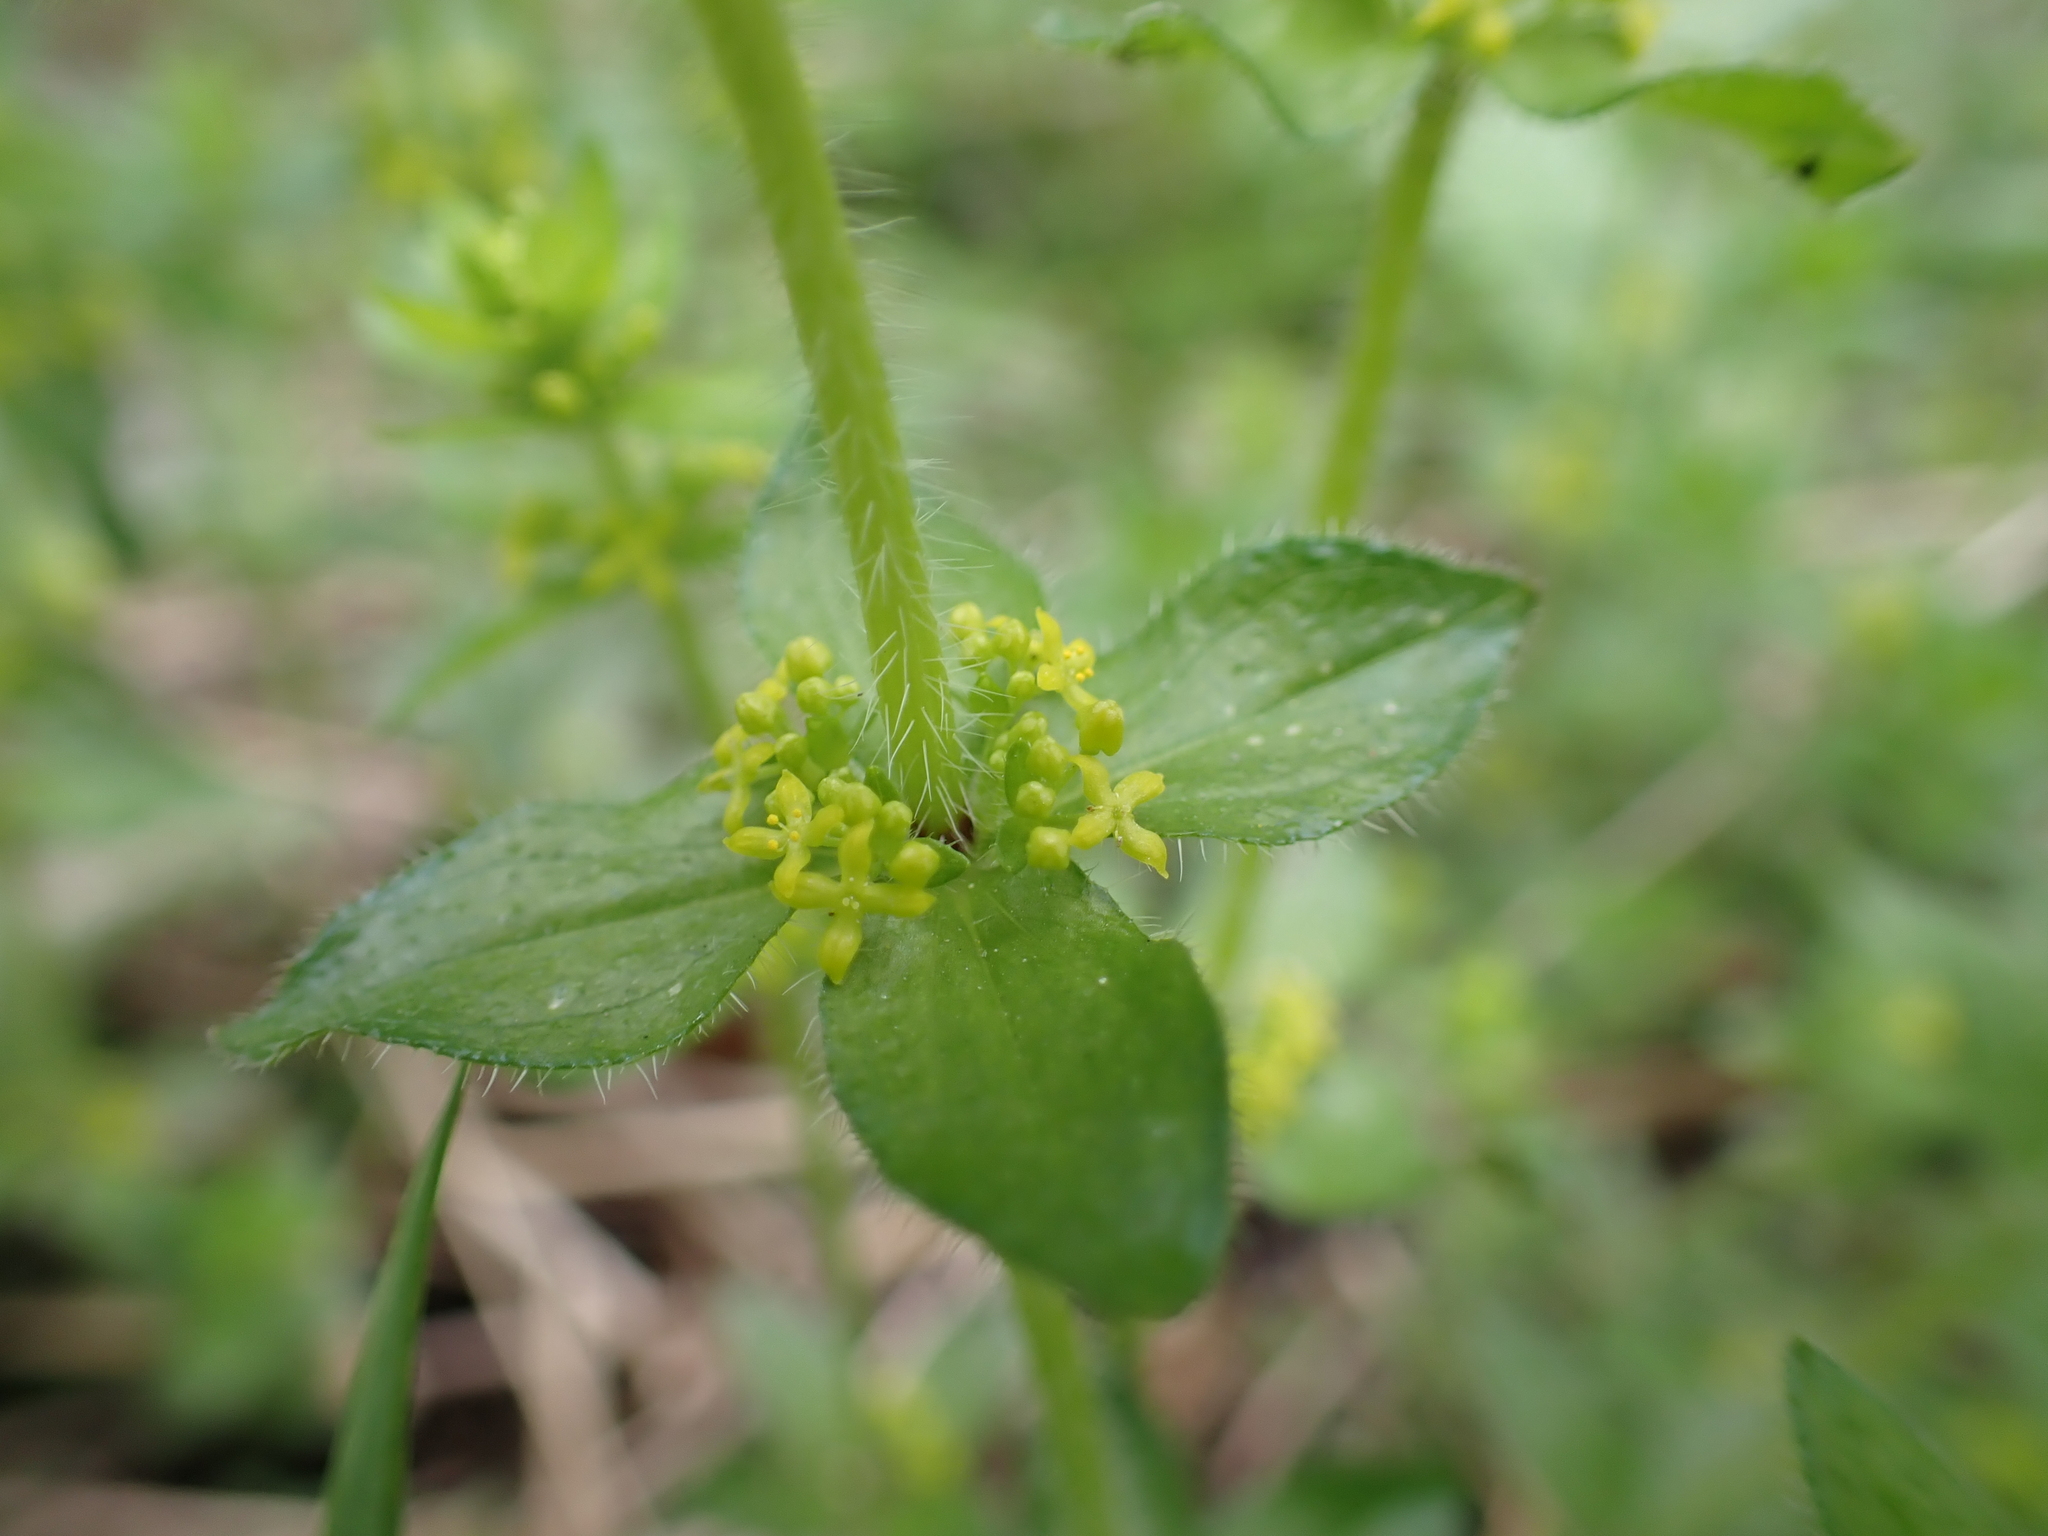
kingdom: Plantae
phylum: Tracheophyta
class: Magnoliopsida
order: Gentianales
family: Rubiaceae
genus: Cruciata
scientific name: Cruciata laevipes
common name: Crosswort
